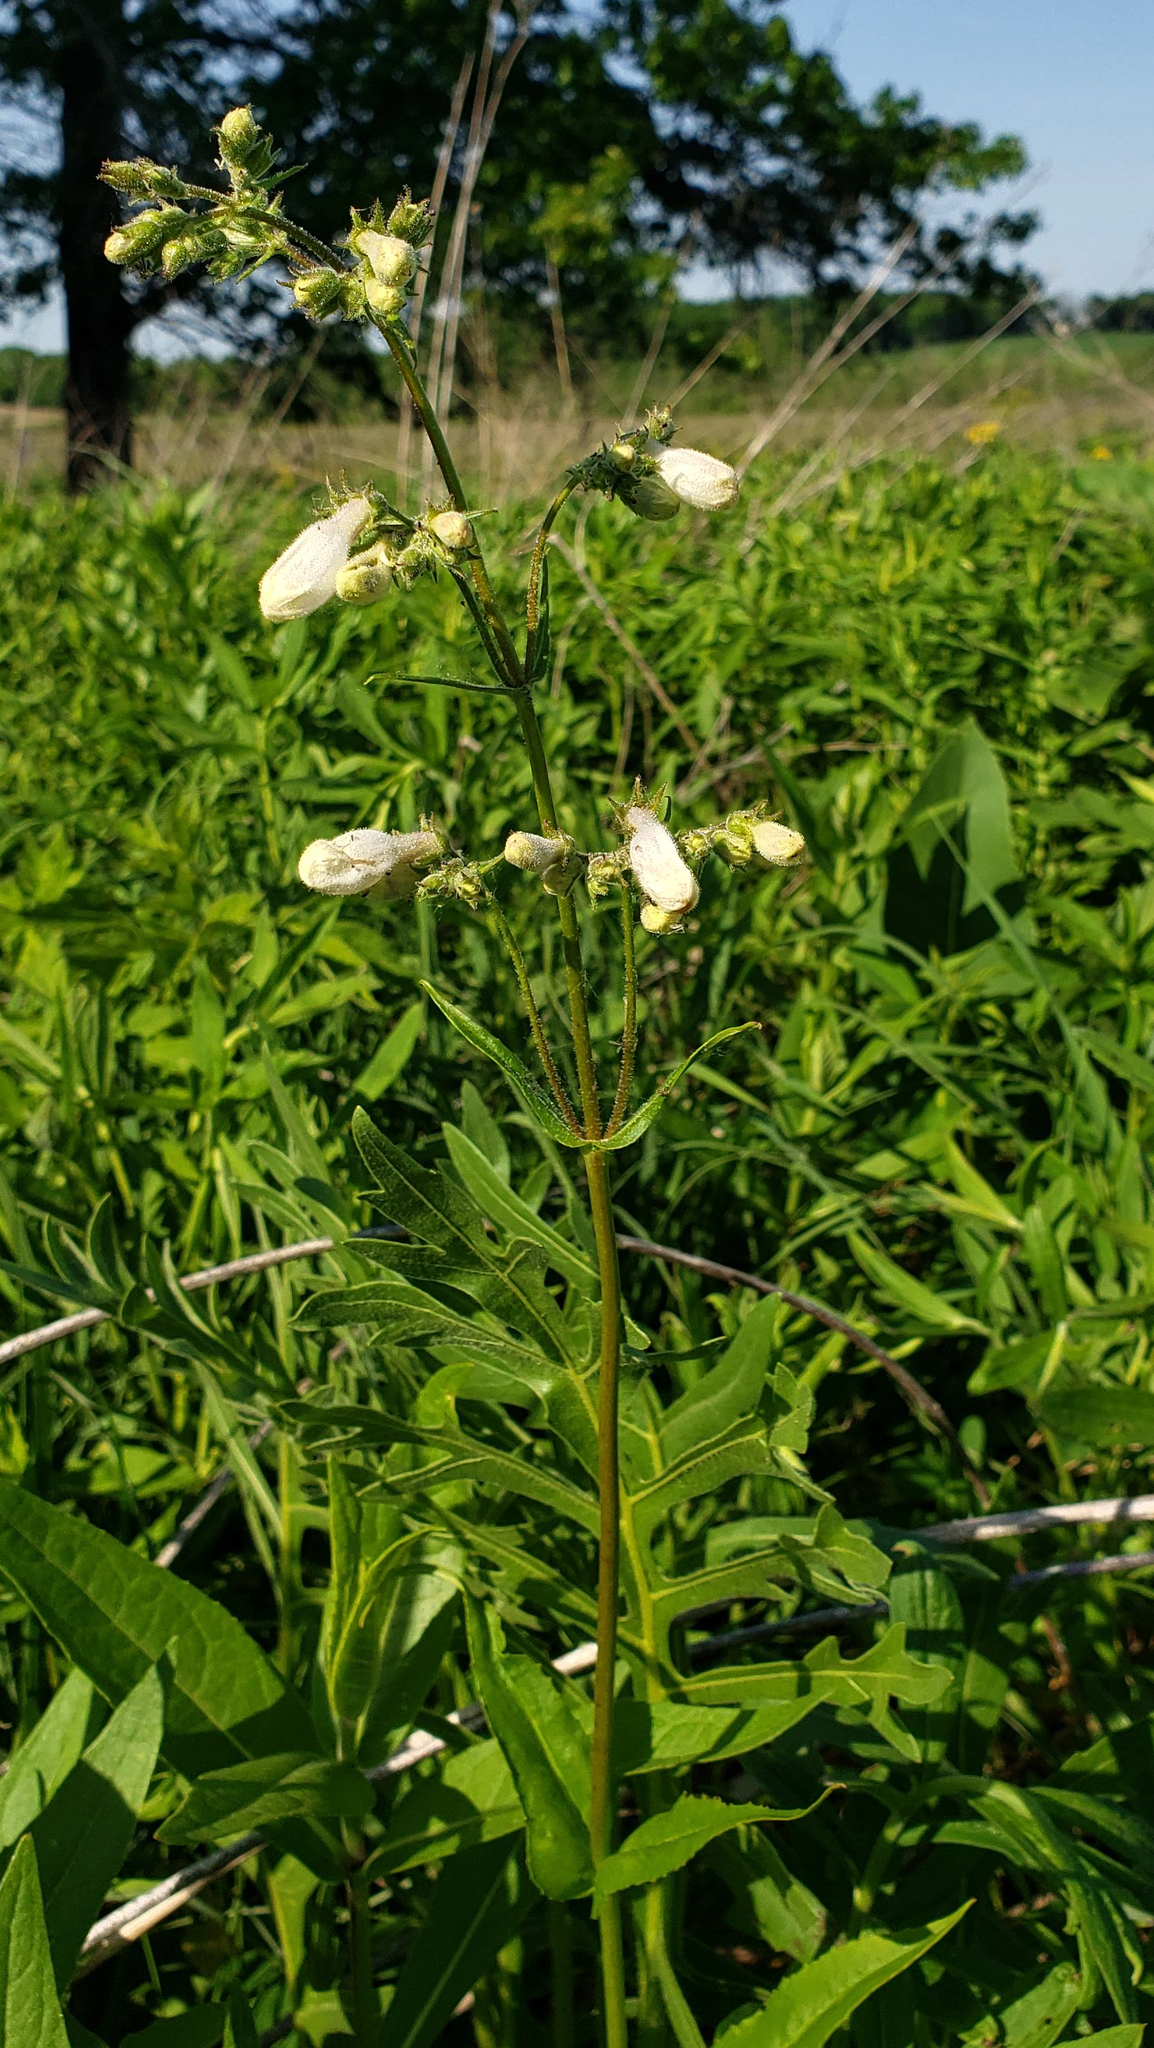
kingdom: Plantae
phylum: Tracheophyta
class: Magnoliopsida
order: Lamiales
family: Plantaginaceae
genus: Penstemon
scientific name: Penstemon digitalis
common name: Foxglove beardtongue
